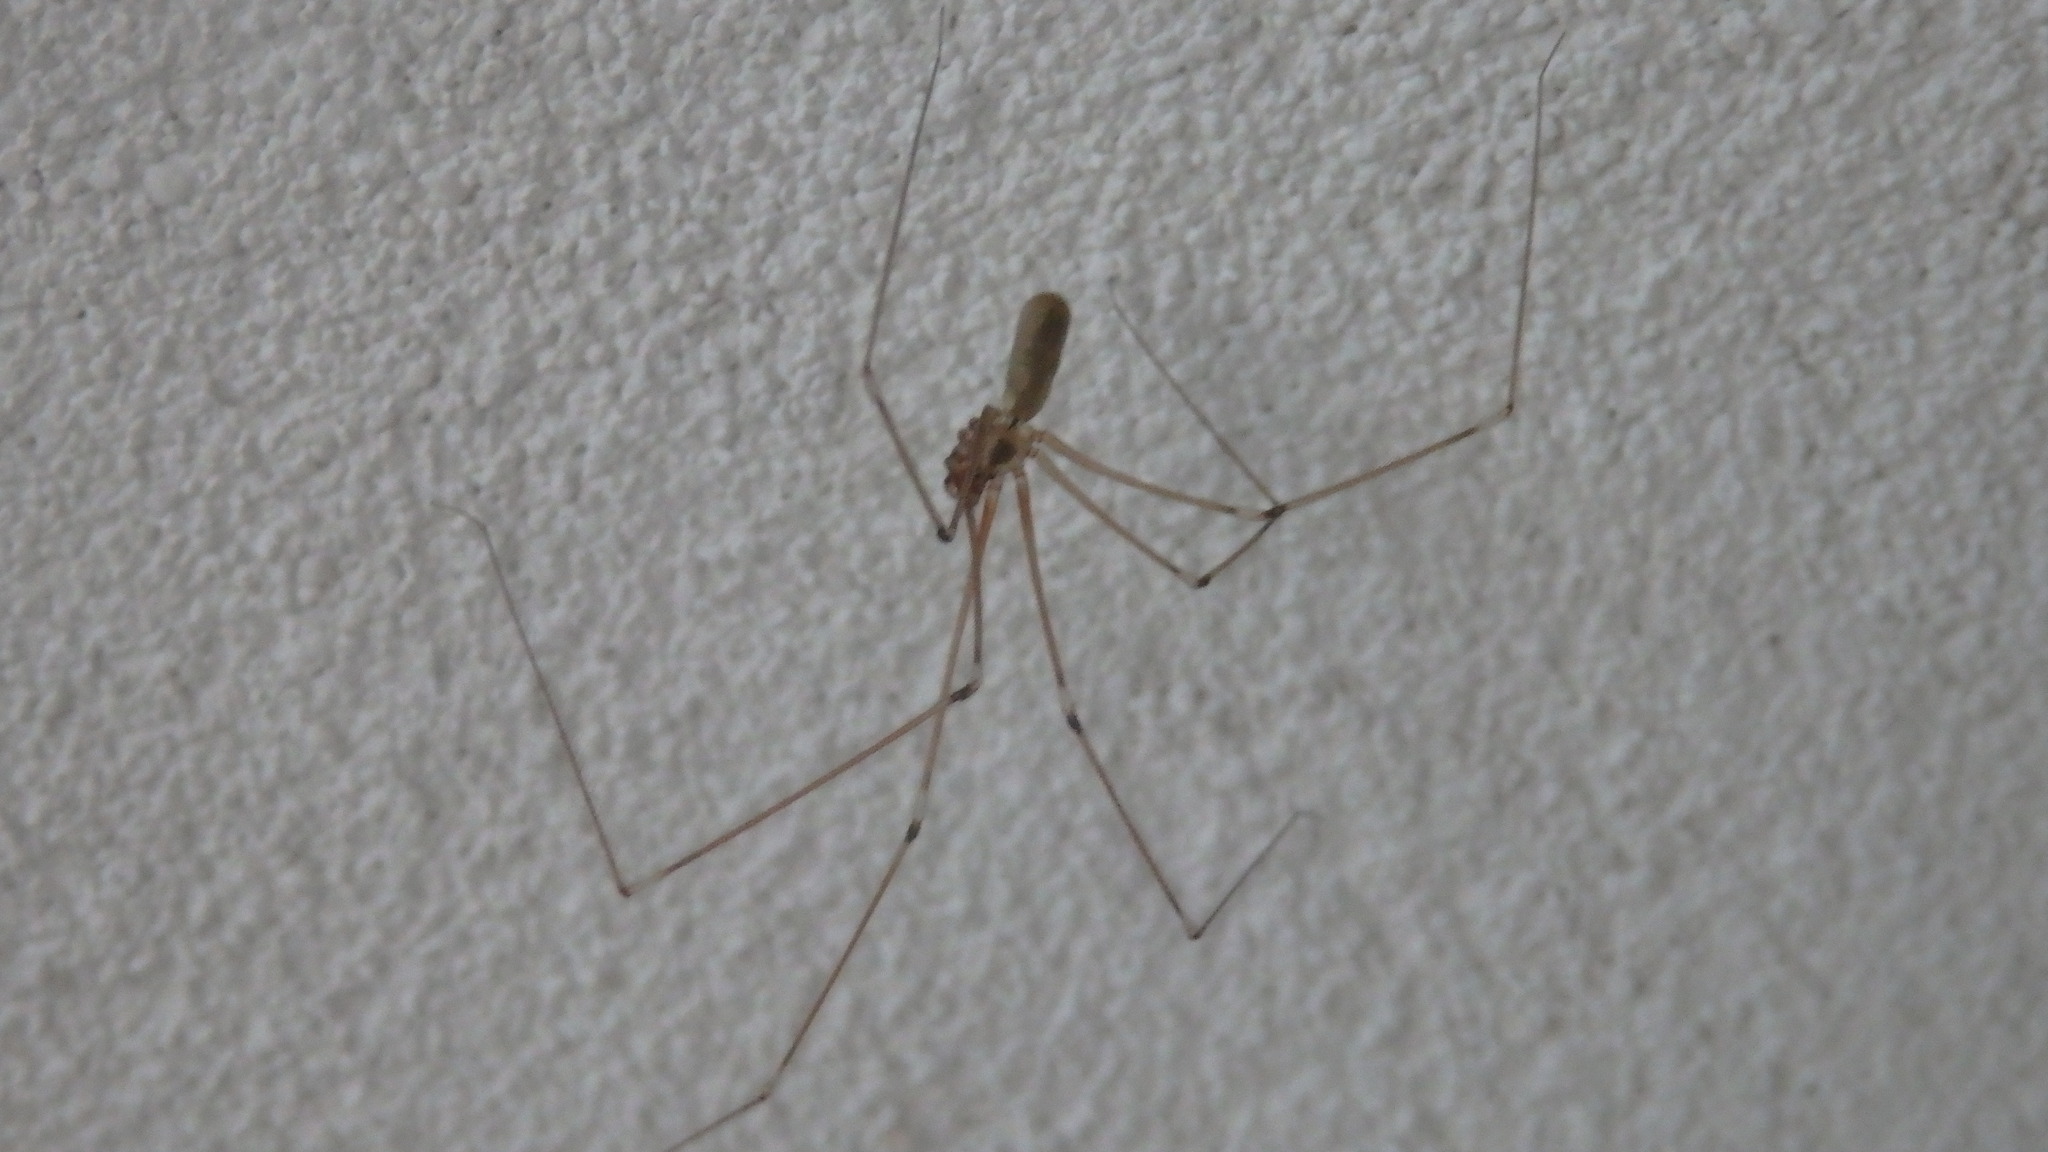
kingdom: Animalia
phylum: Arthropoda
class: Arachnida
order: Araneae
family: Pholcidae
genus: Pholcus
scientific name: Pholcus phalangioides
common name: Longbodied cellar spider
